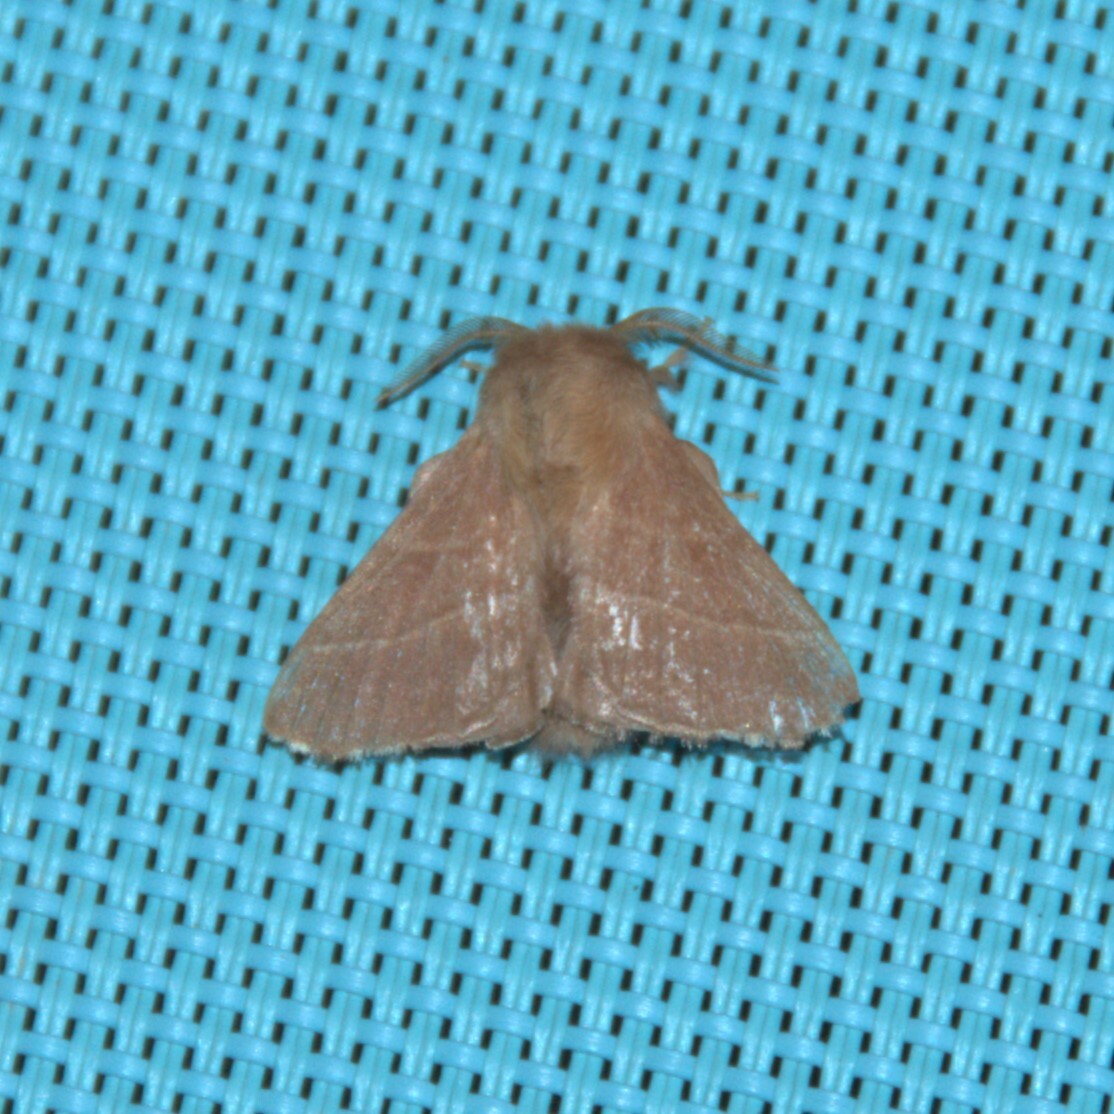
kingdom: Animalia
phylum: Arthropoda
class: Insecta
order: Lepidoptera
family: Lasiocampidae
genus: Malacosoma
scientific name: Malacosoma neustria
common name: The lackey
